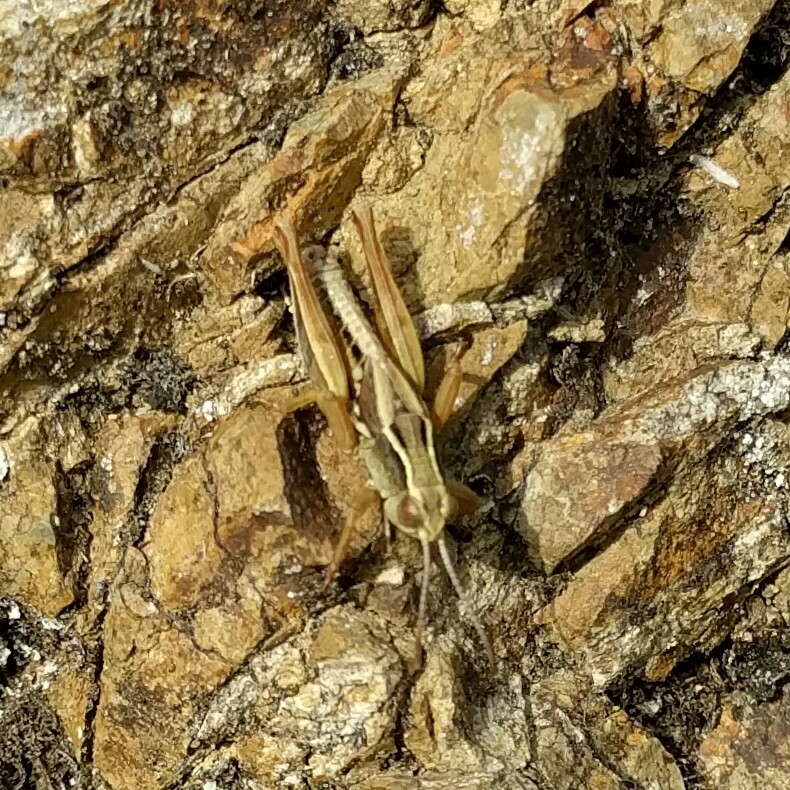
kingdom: Animalia
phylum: Arthropoda
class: Insecta
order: Orthoptera
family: Acrididae
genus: Phaulacridium
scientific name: Phaulacridium marginale
